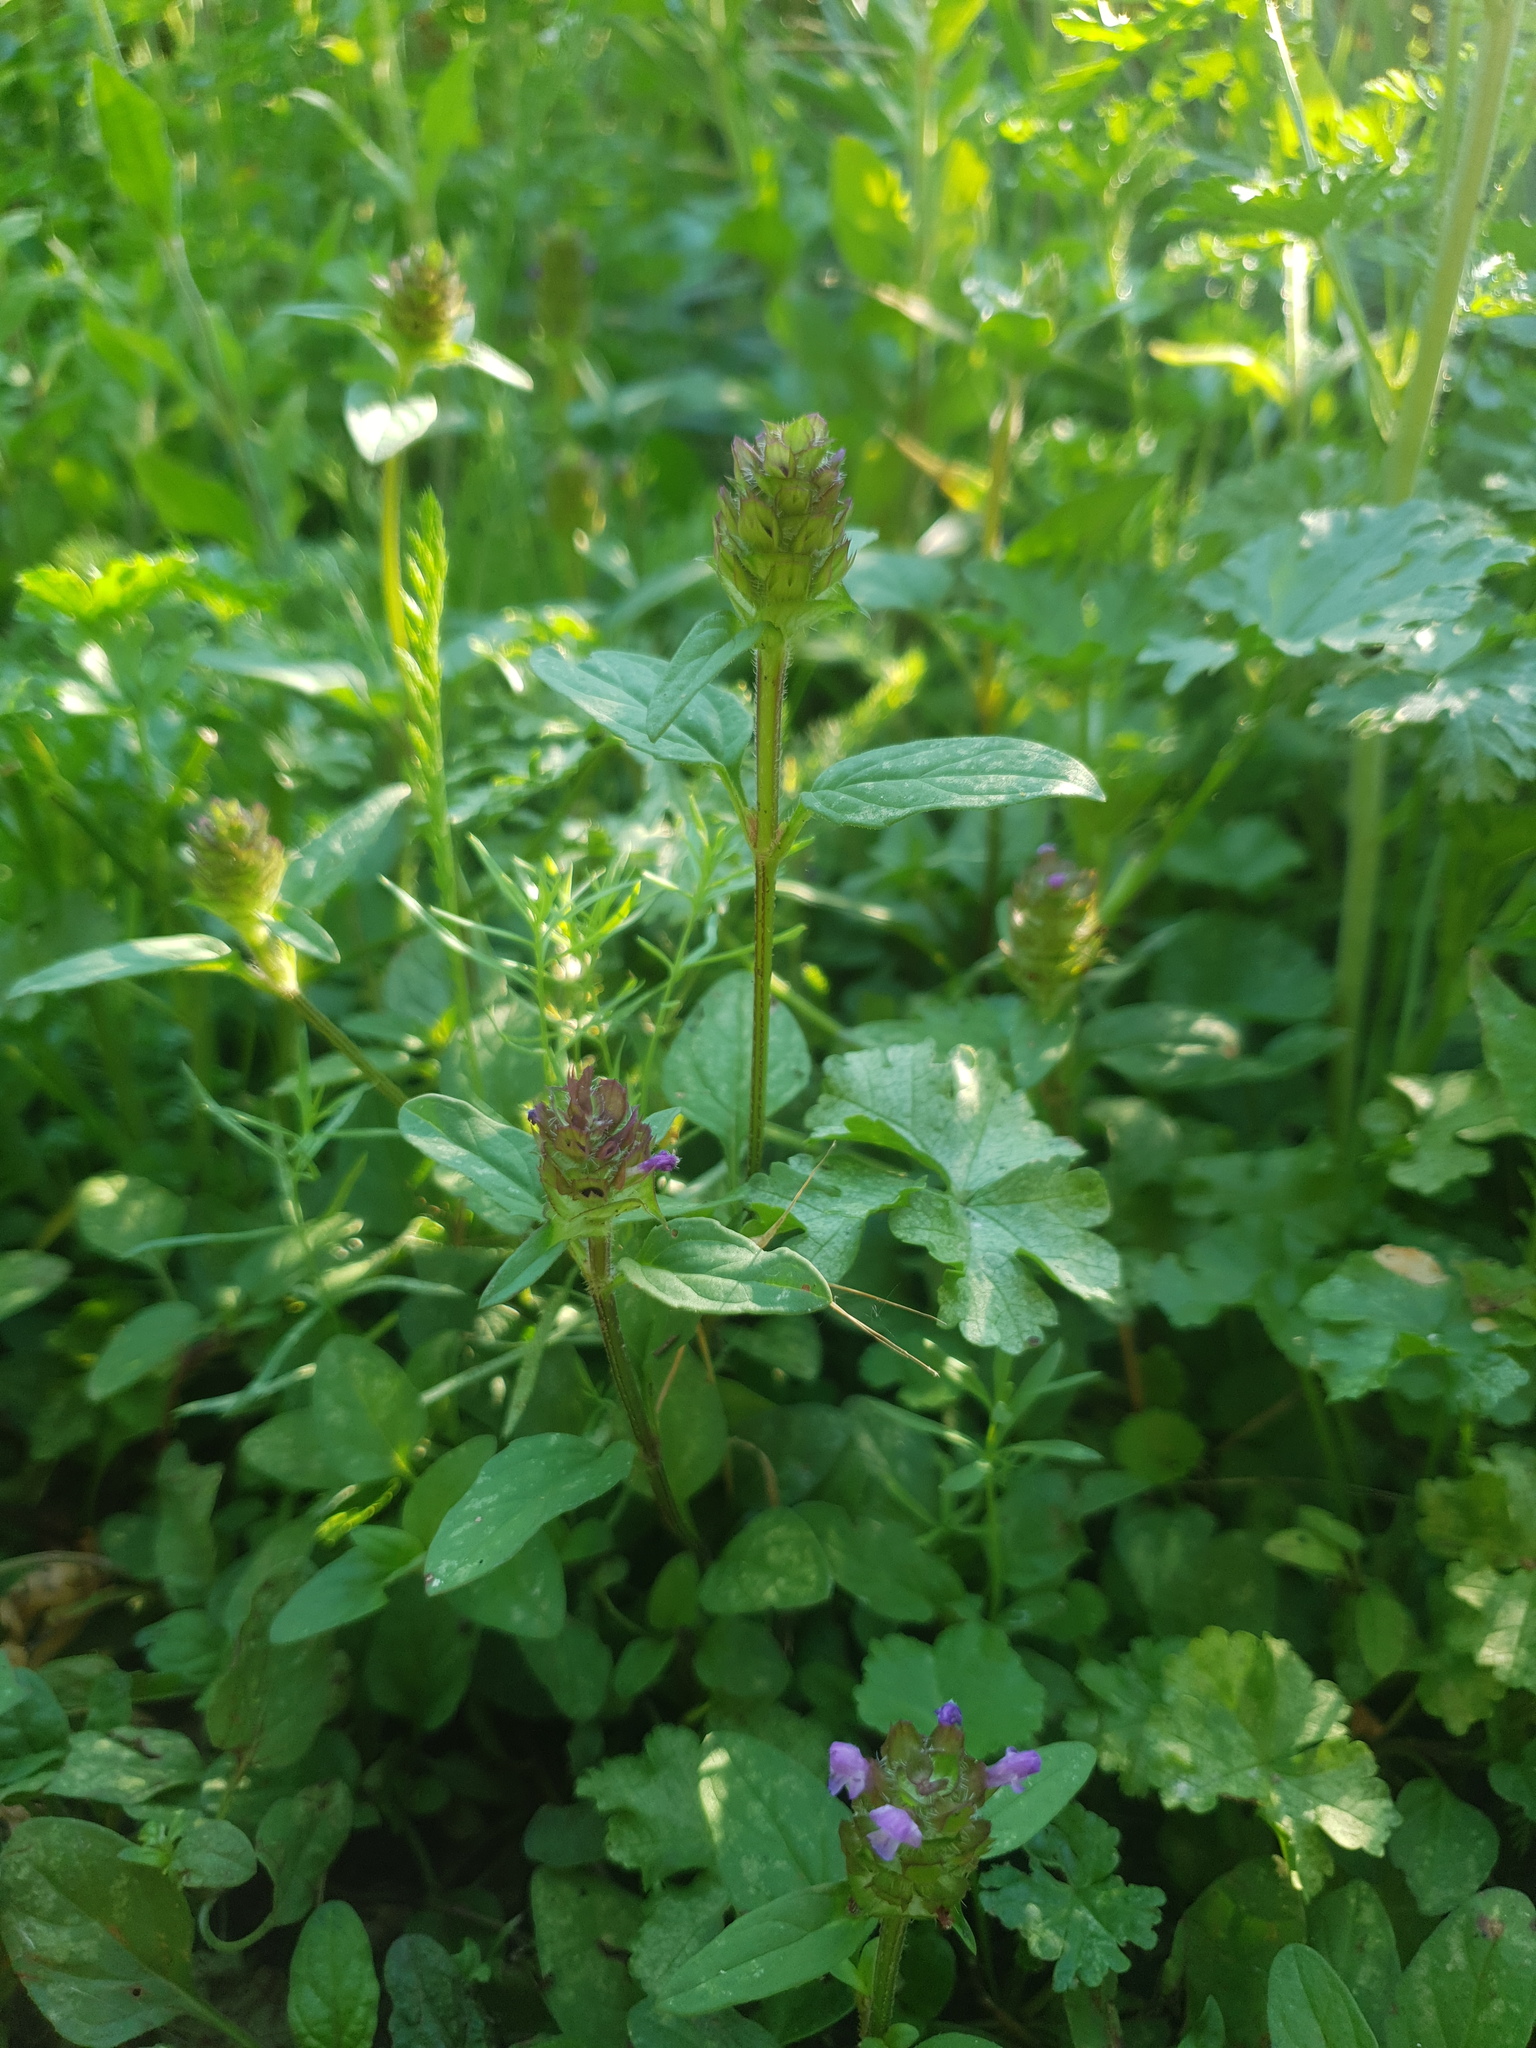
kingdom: Plantae
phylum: Tracheophyta
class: Magnoliopsida
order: Lamiales
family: Lamiaceae
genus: Prunella
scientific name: Prunella vulgaris
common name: Heal-all
